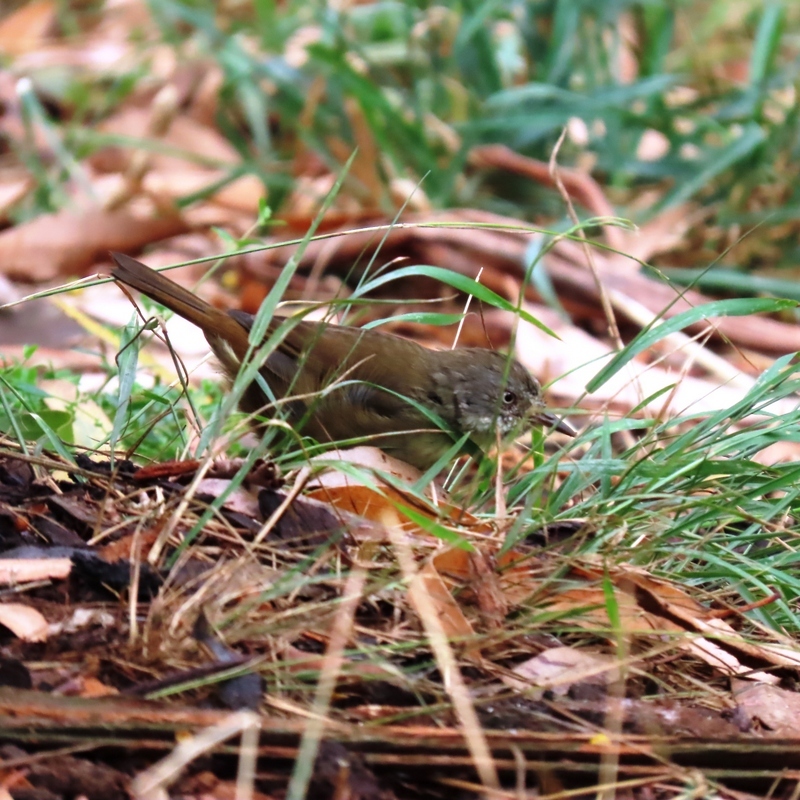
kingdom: Animalia
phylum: Chordata
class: Aves
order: Passeriformes
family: Acanthizidae
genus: Sericornis
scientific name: Sericornis frontalis
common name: White-browed scrubwren
